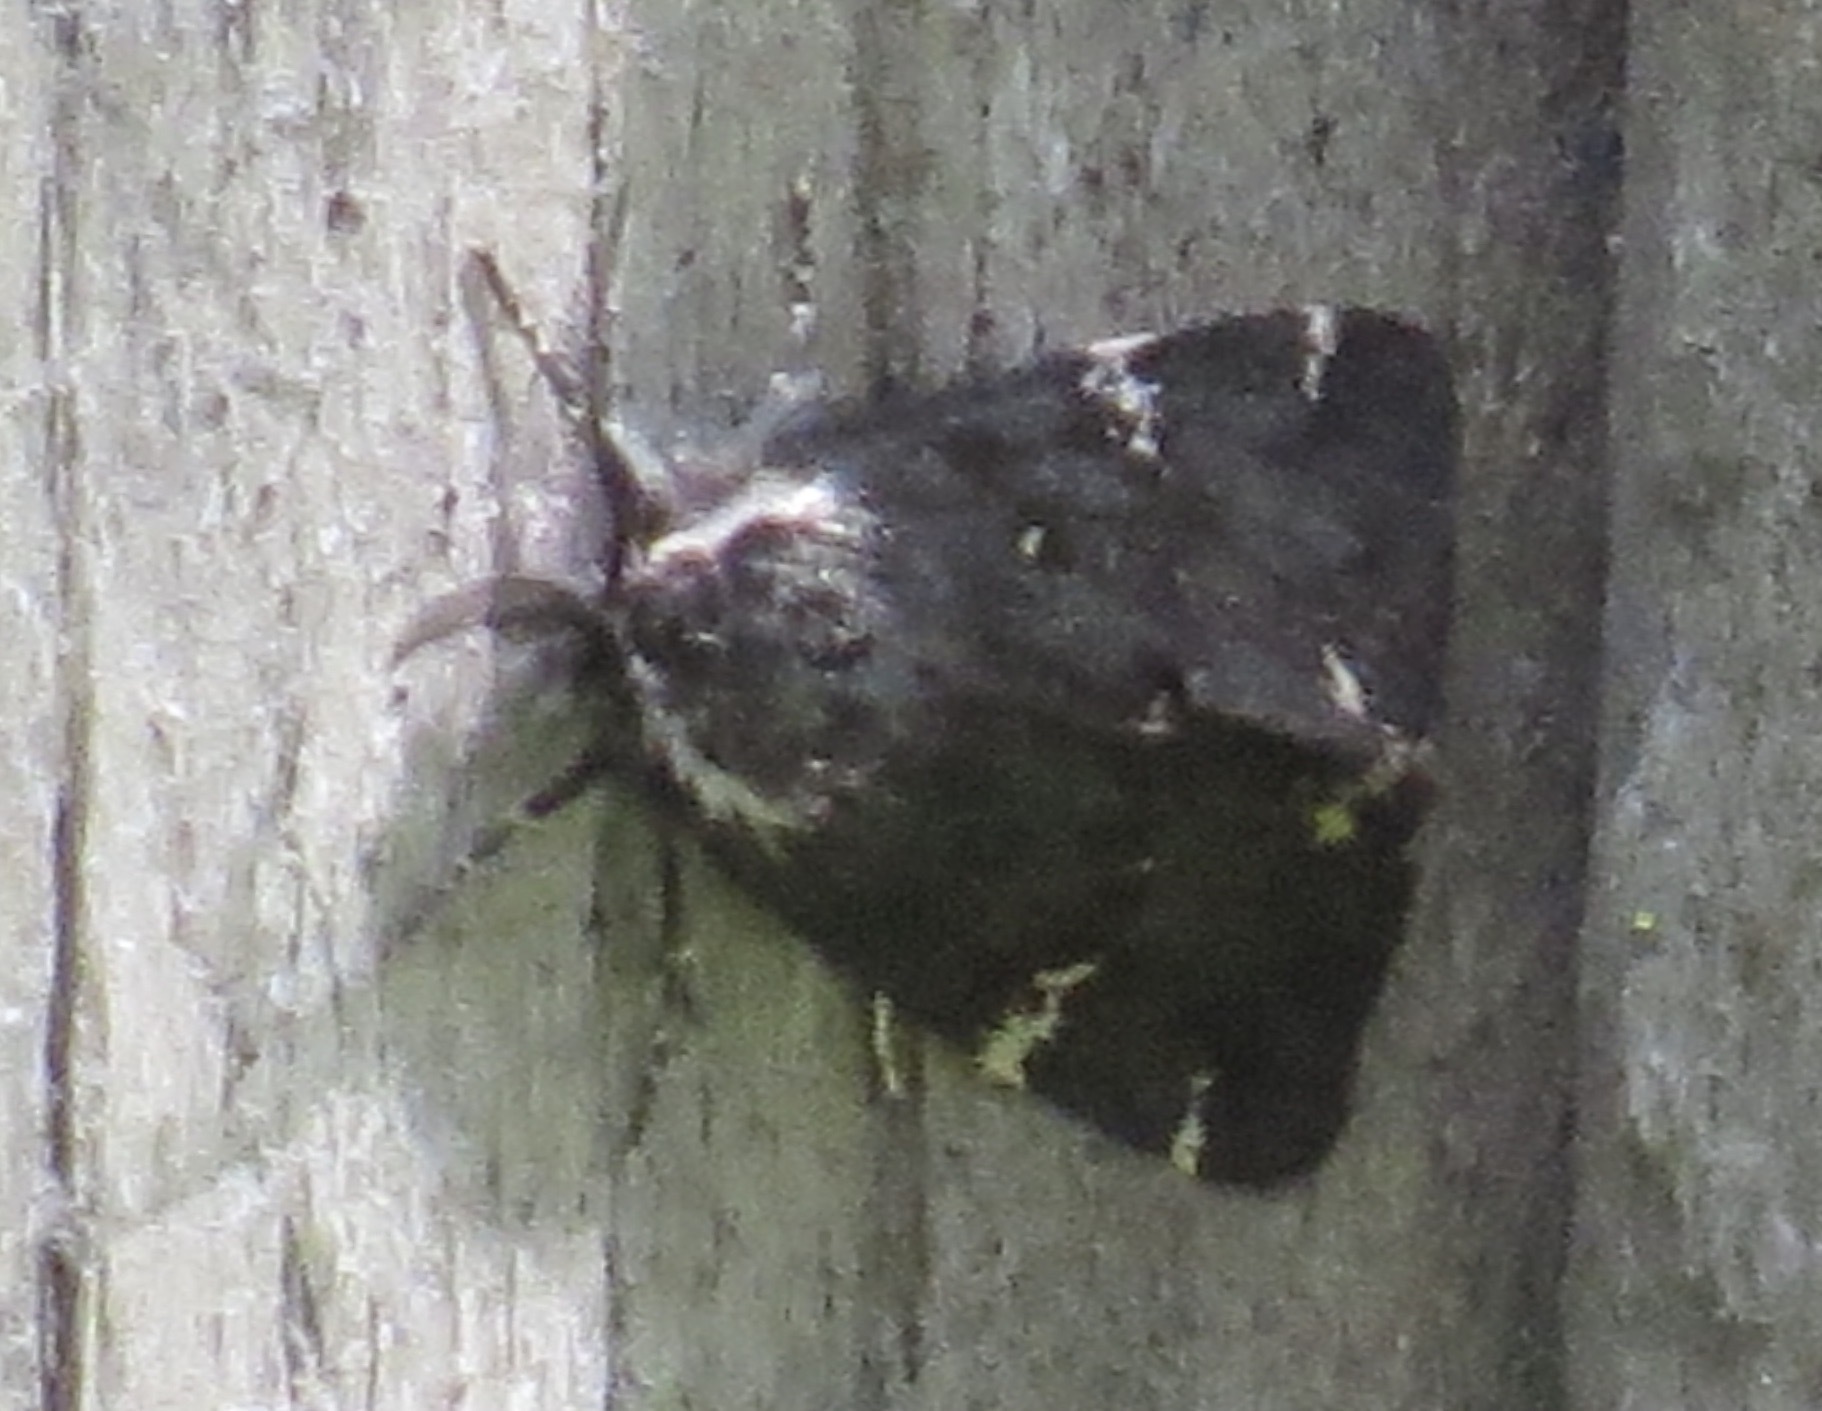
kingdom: Animalia
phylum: Arthropoda
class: Insecta
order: Lepidoptera
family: Erebidae
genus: Leptarctia
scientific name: Leptarctia californiae
